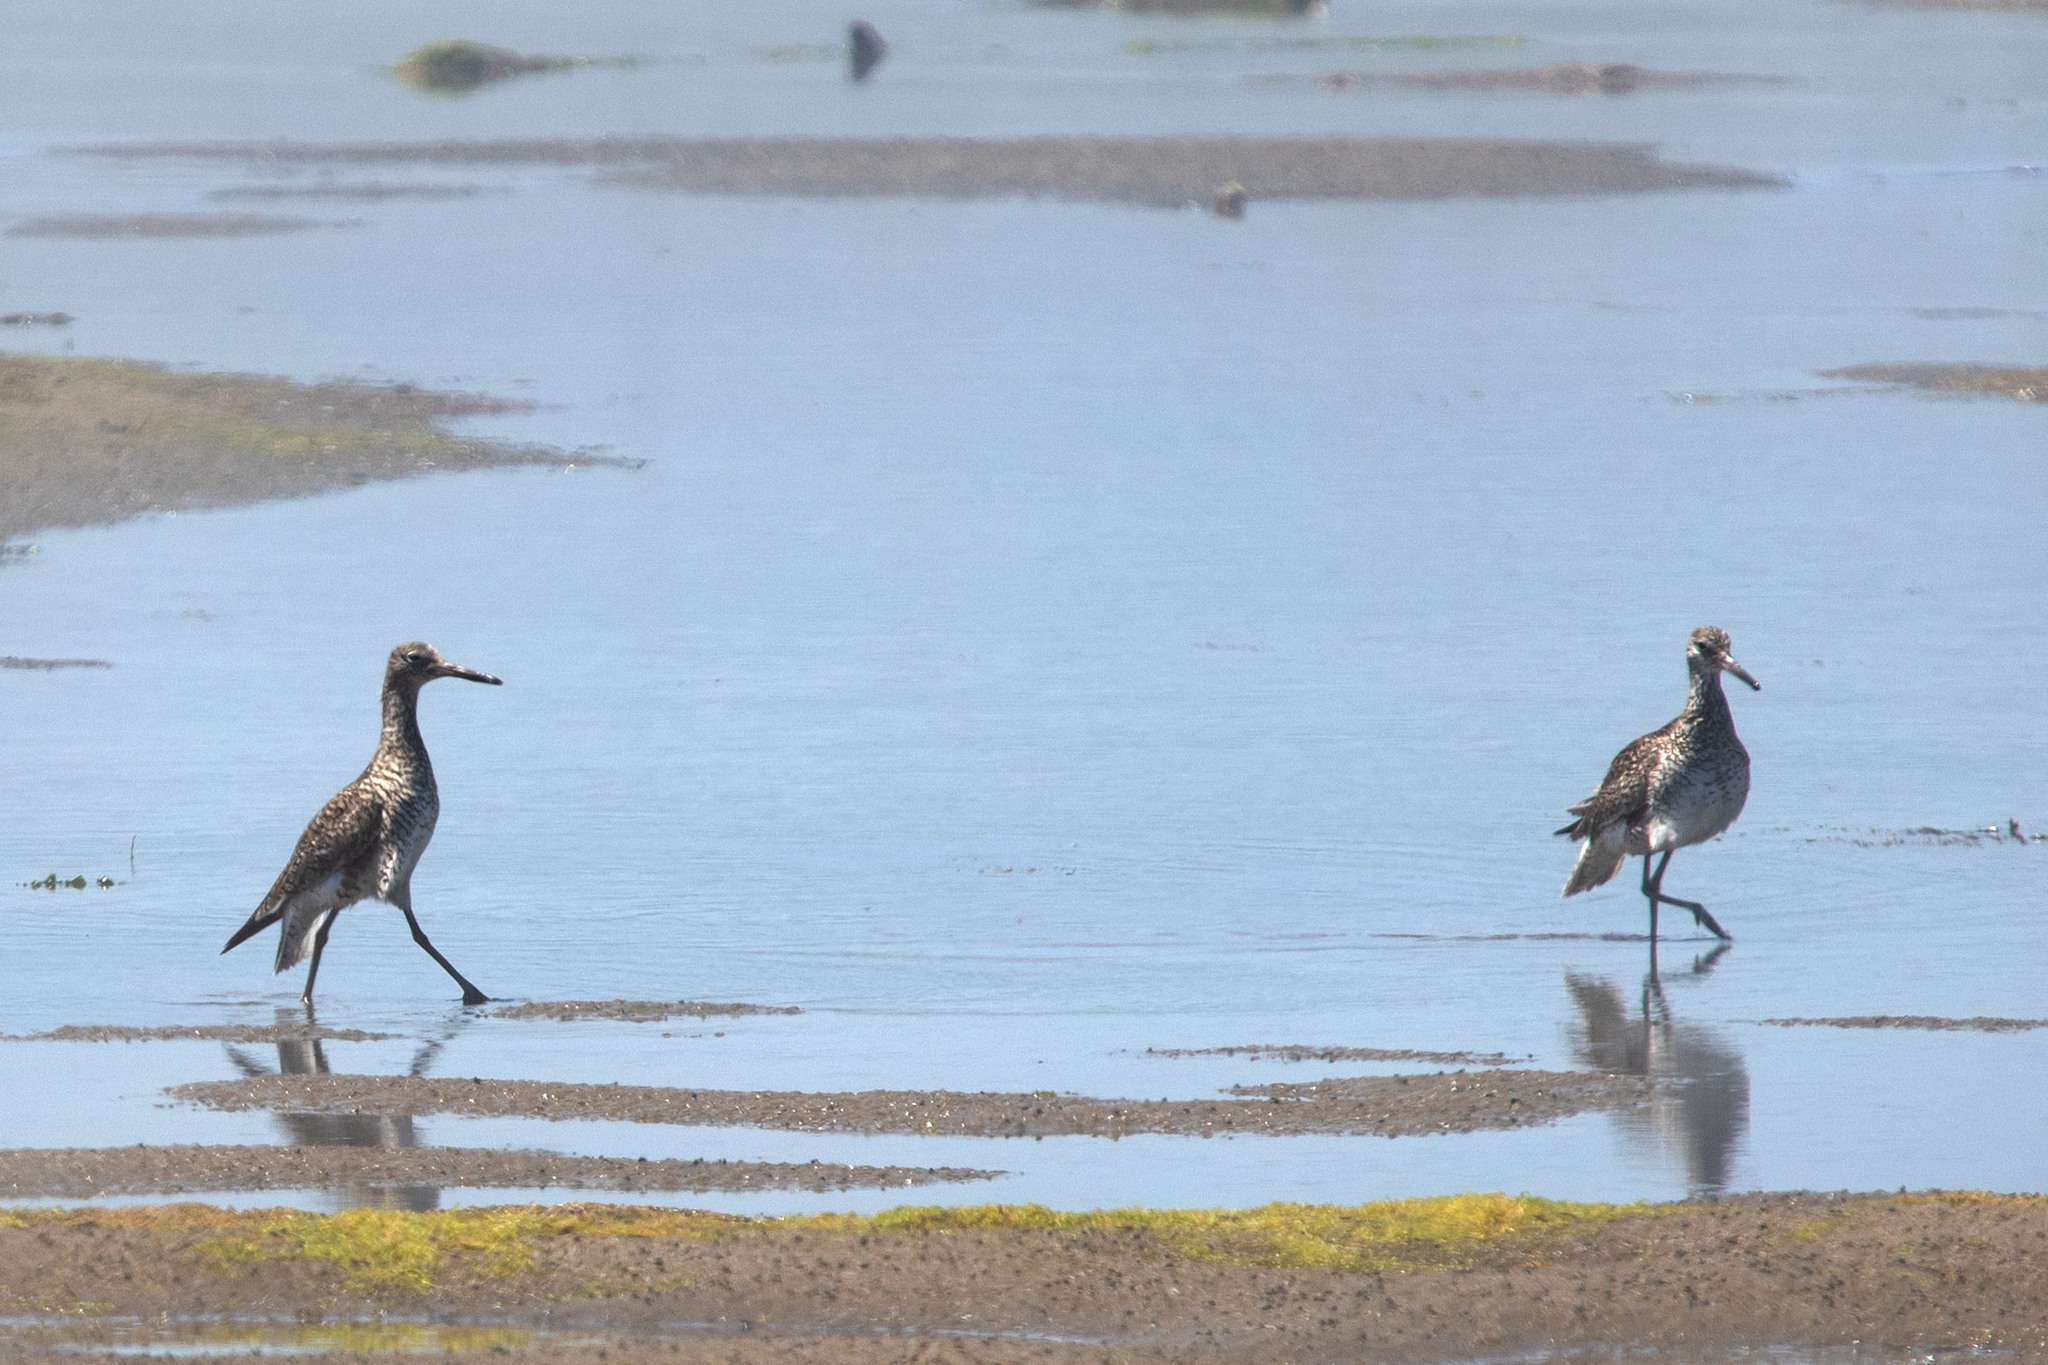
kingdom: Animalia
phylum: Chordata
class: Aves
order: Charadriiformes
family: Scolopacidae
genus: Tringa
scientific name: Tringa semipalmata
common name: Willet
